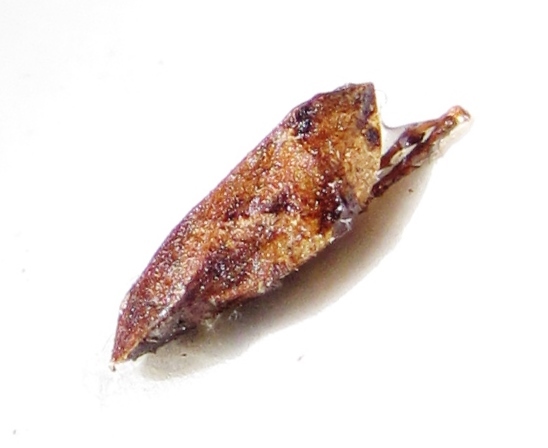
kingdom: Animalia
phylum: Arthropoda
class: Insecta
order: Hemiptera
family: Aphrophoridae
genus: Lepyronia
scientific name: Lepyronia quadrangularis
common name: Diamond-backed spittlebug
